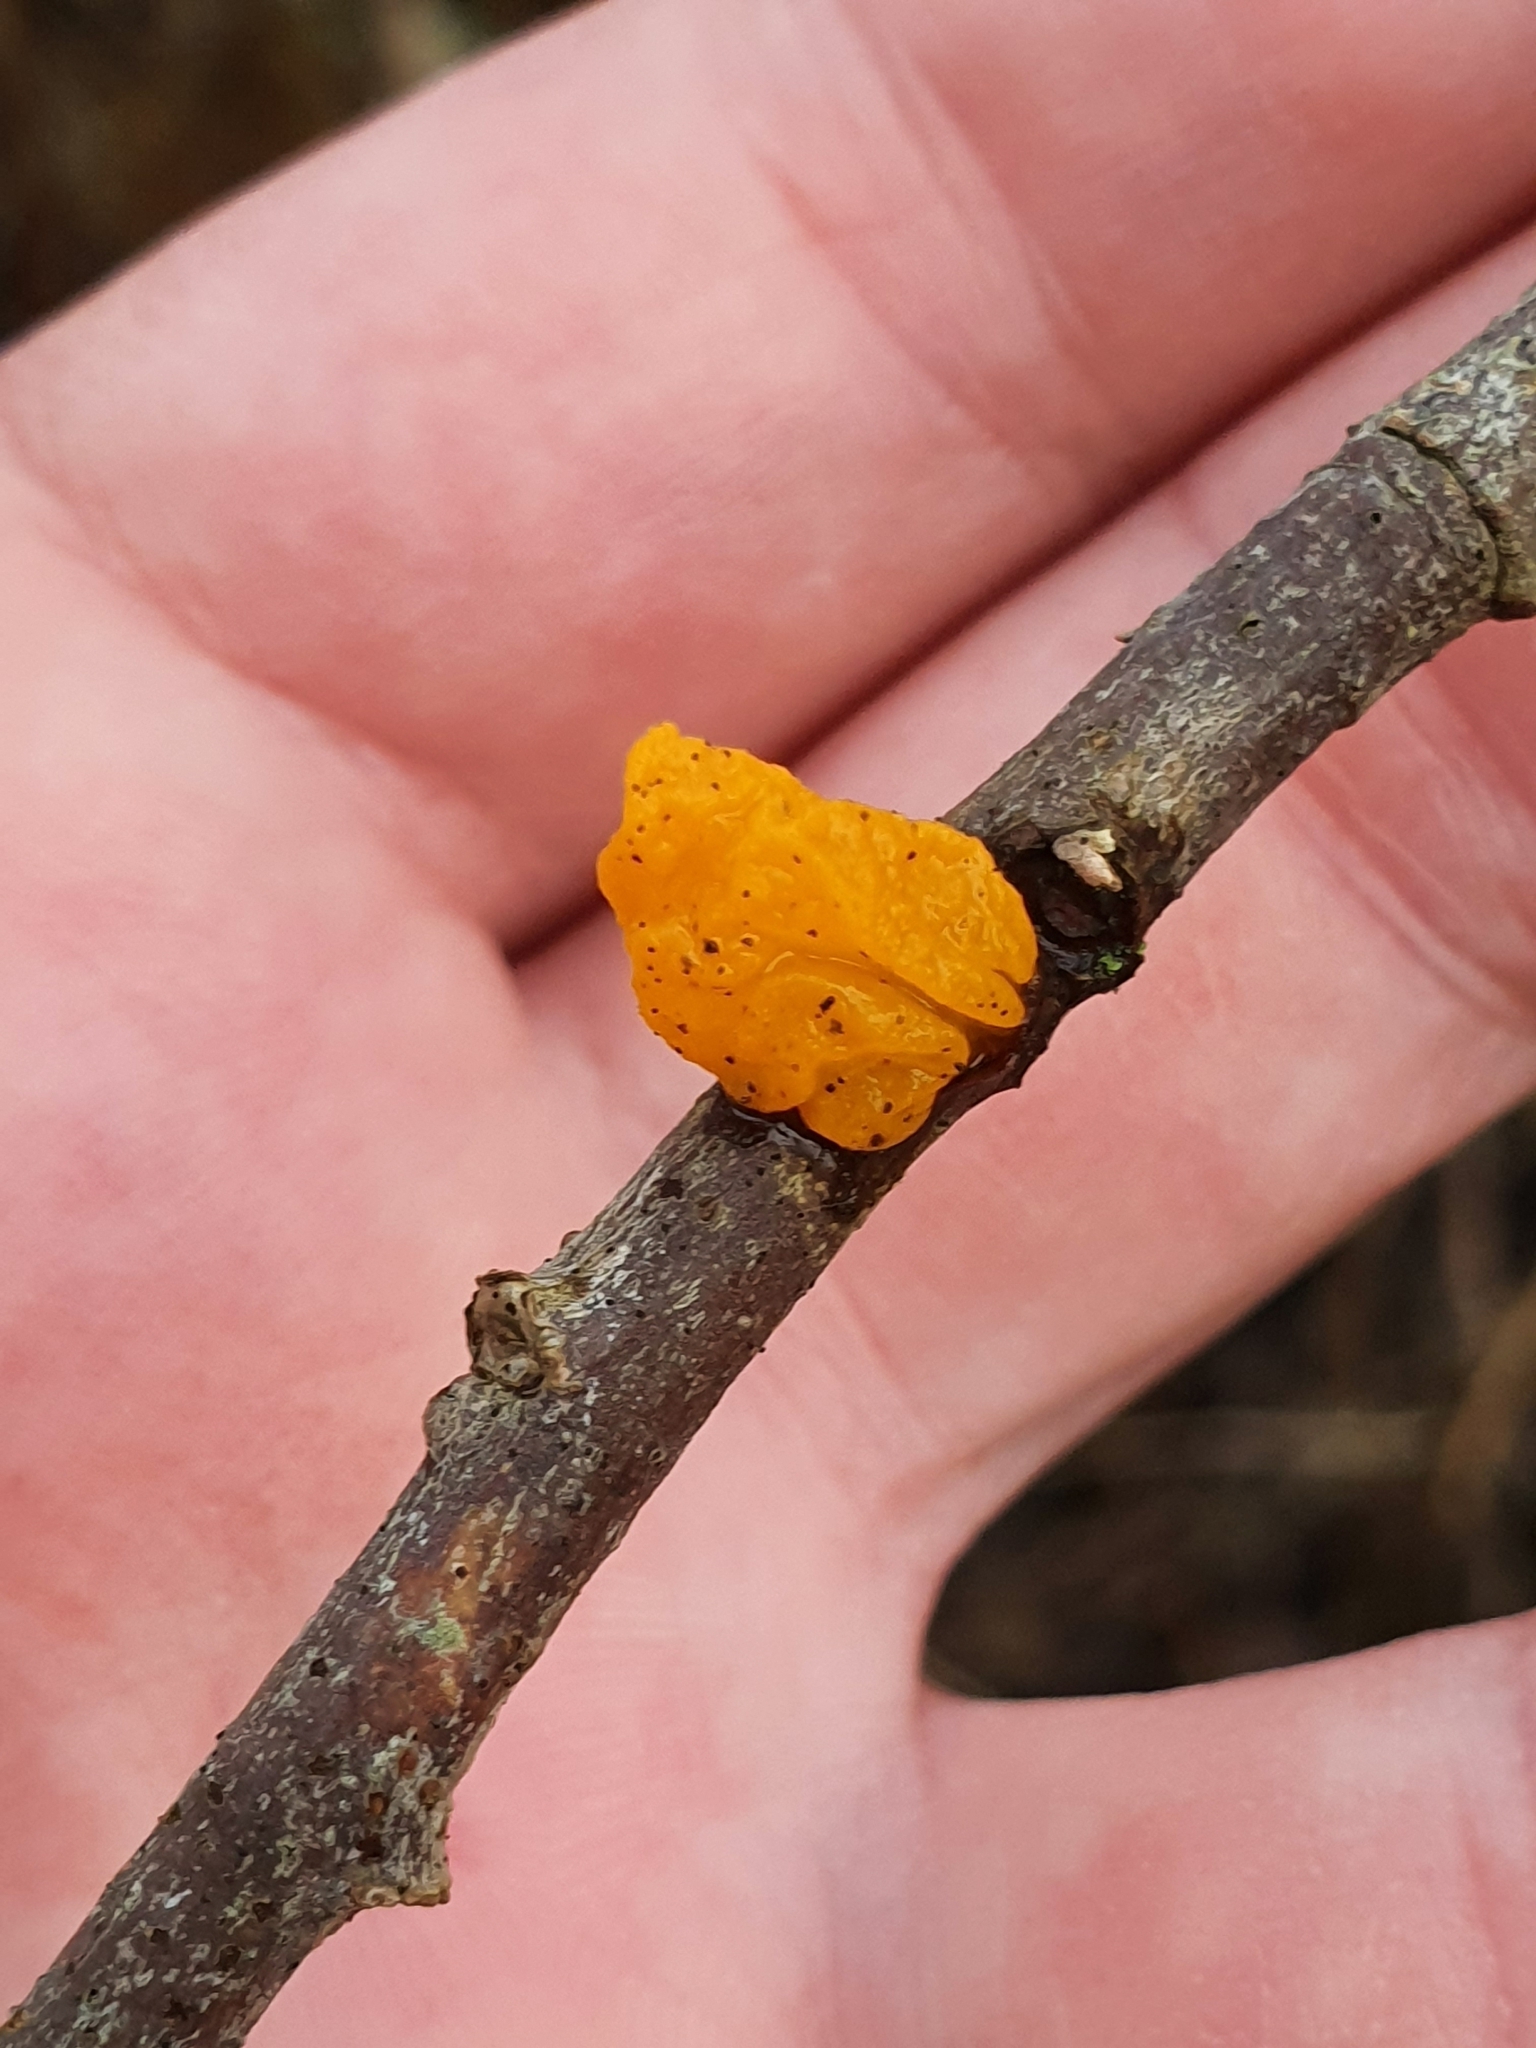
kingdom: Fungi
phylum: Basidiomycota
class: Tremellomycetes
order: Tremellales
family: Tremellaceae
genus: Tremella
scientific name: Tremella mesenterica
